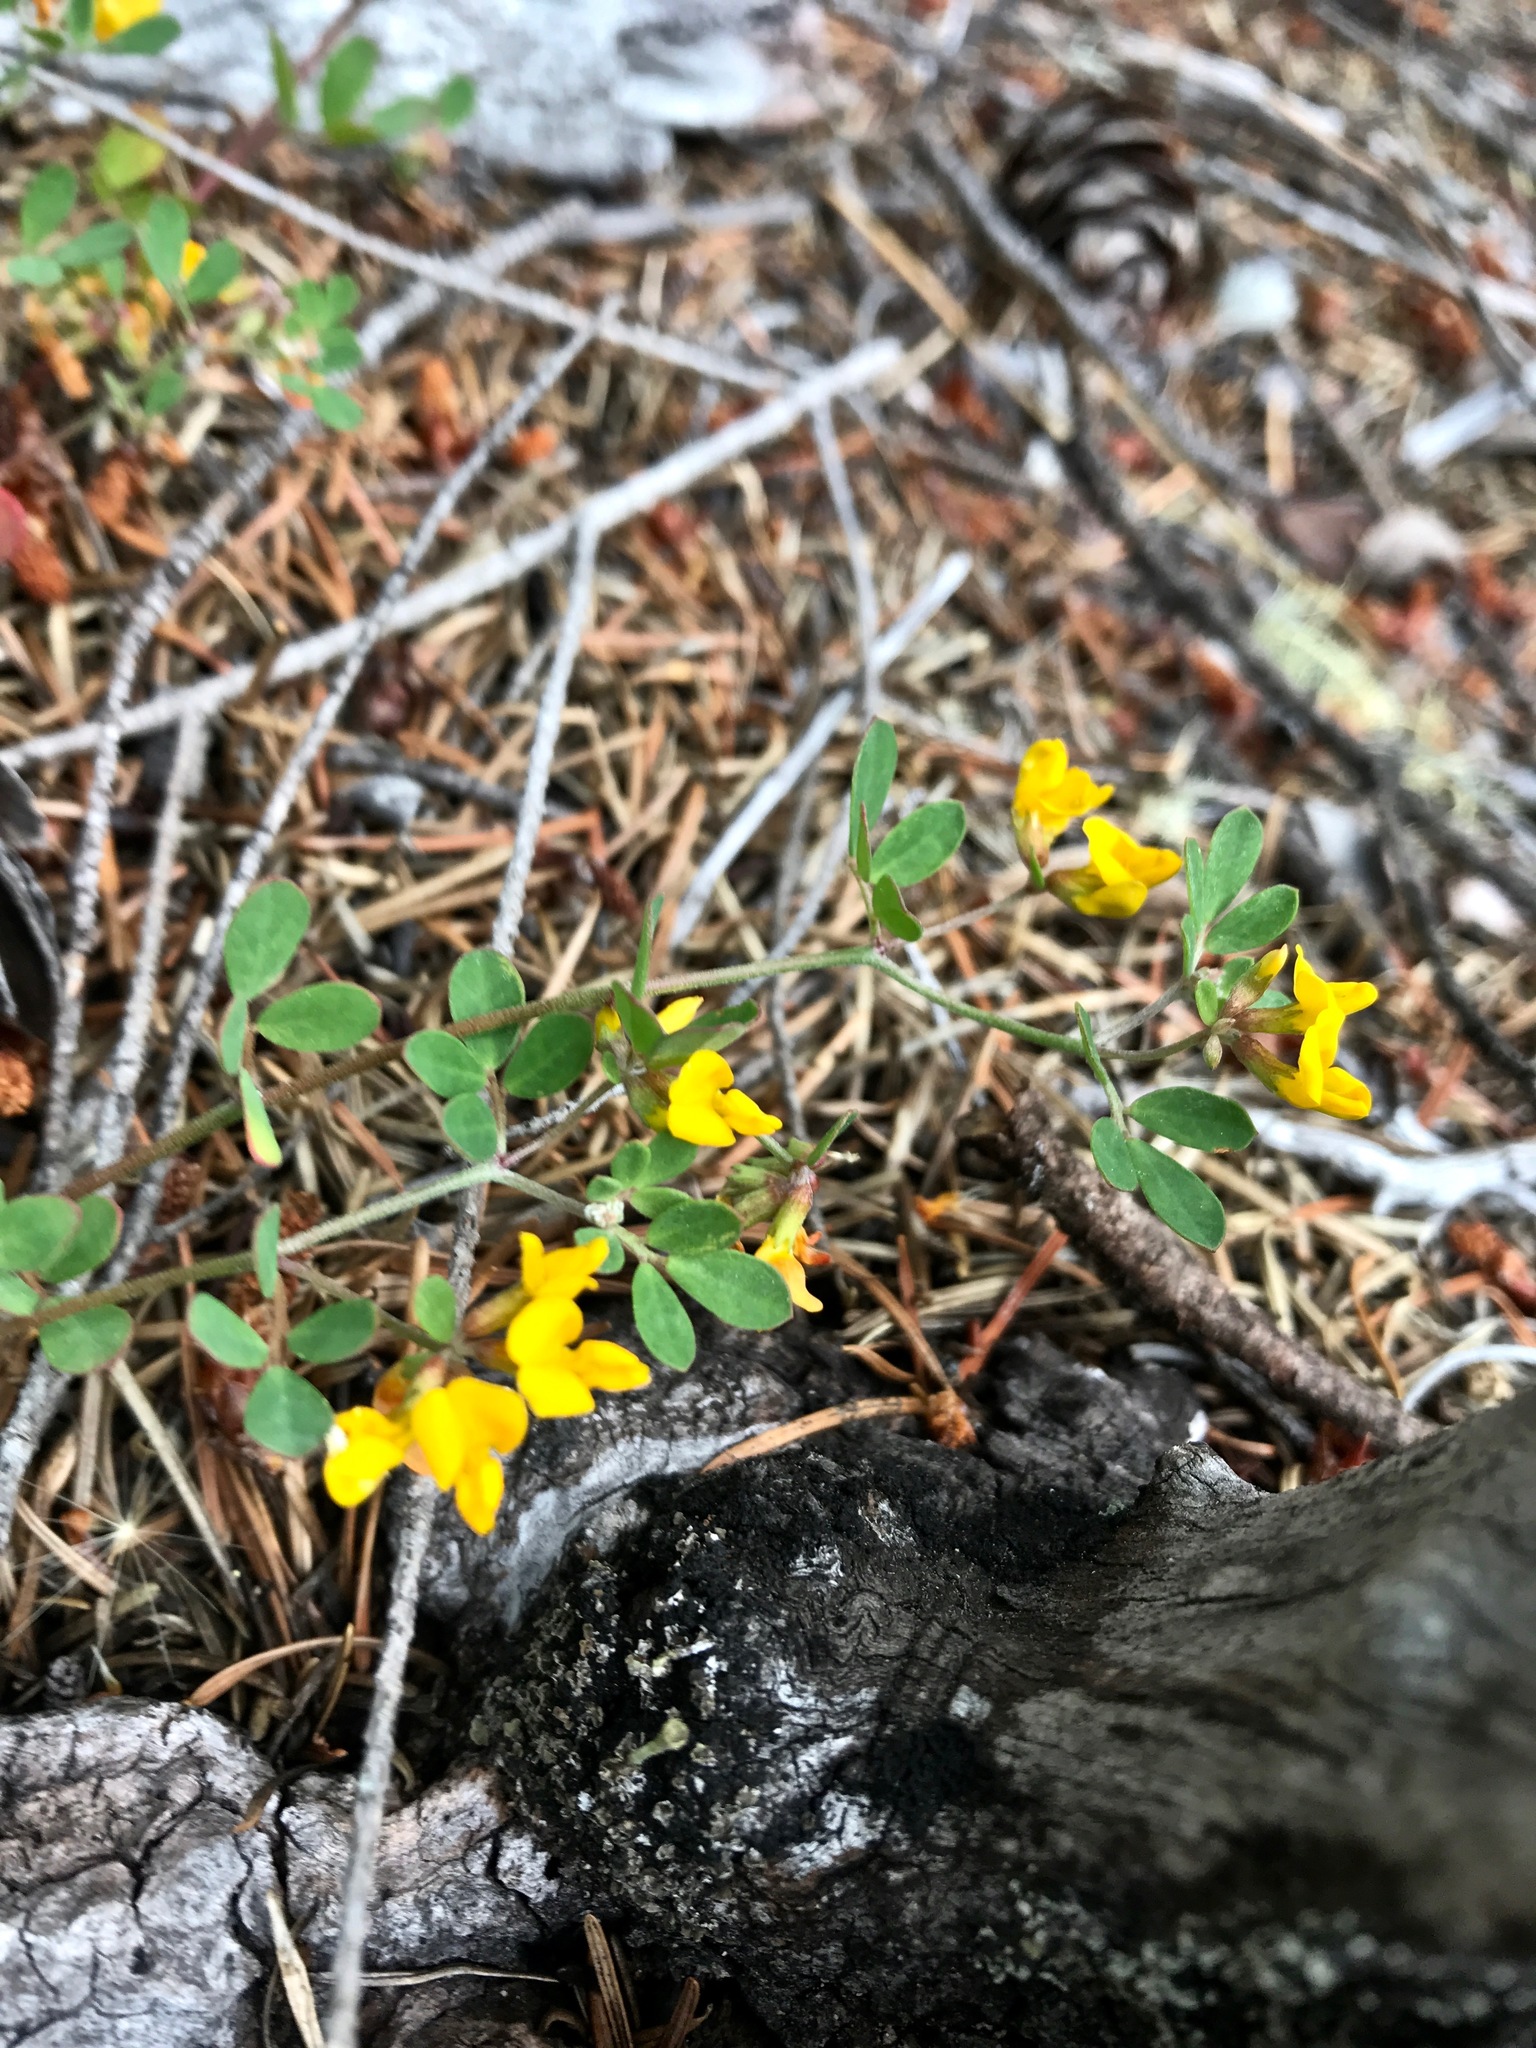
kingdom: Plantae
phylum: Tracheophyta
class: Magnoliopsida
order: Fabales
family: Fabaceae
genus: Acmispon
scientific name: Acmispon junceus
